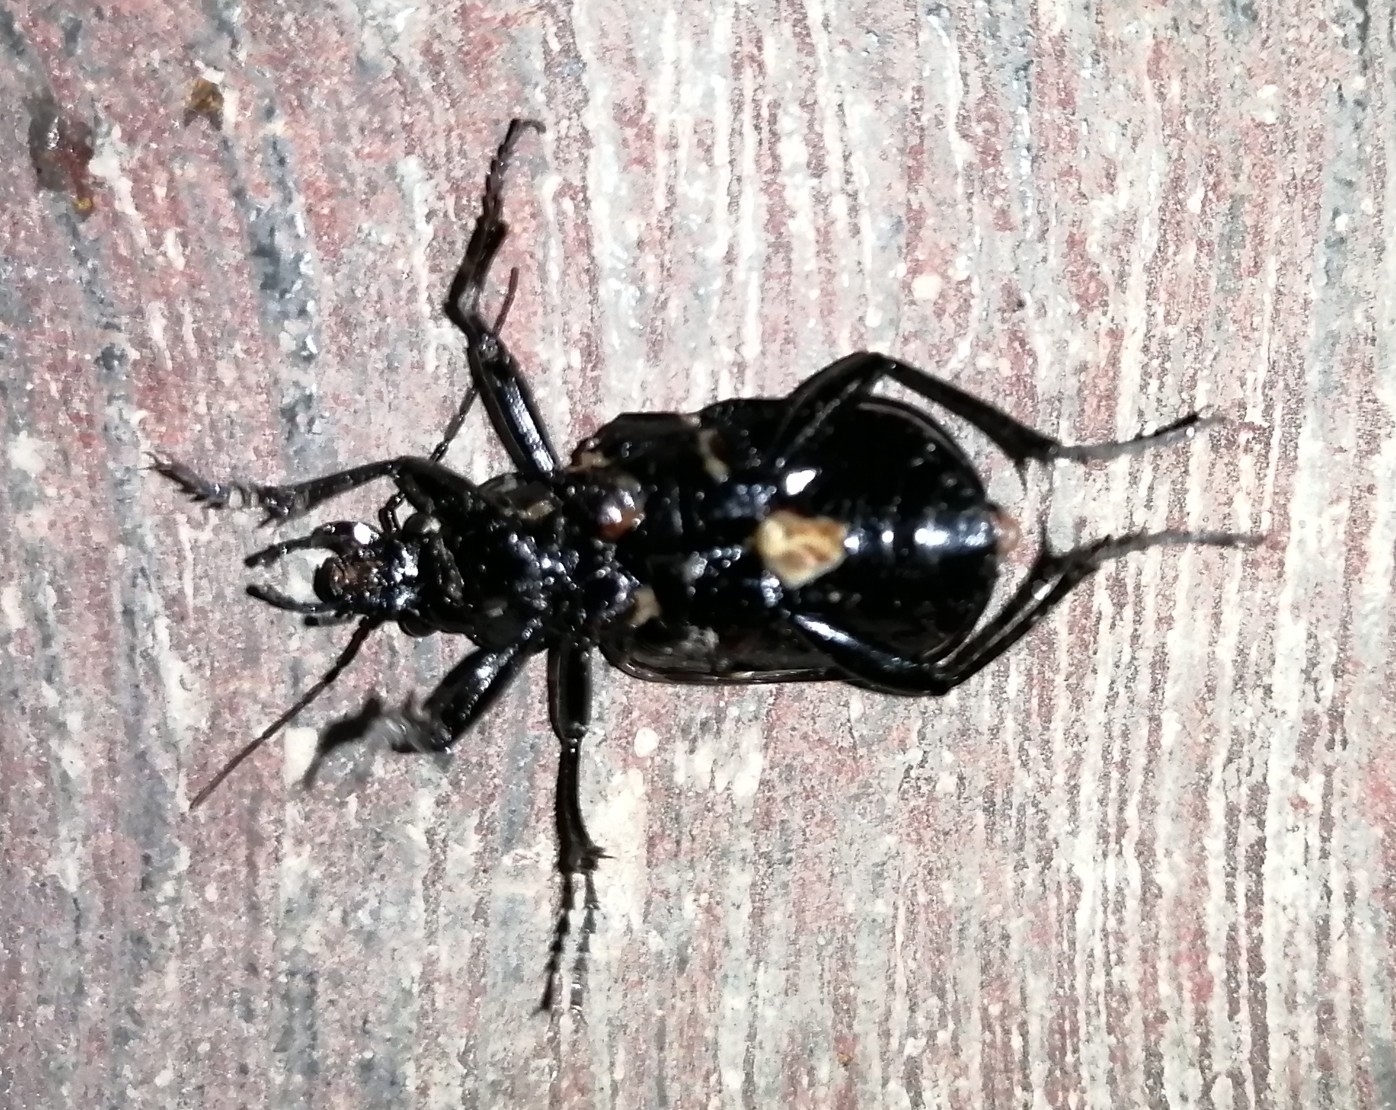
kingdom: Animalia
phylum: Arthropoda
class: Insecta
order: Coleoptera
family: Carabidae
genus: Calosoma
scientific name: Calosoma sayi
